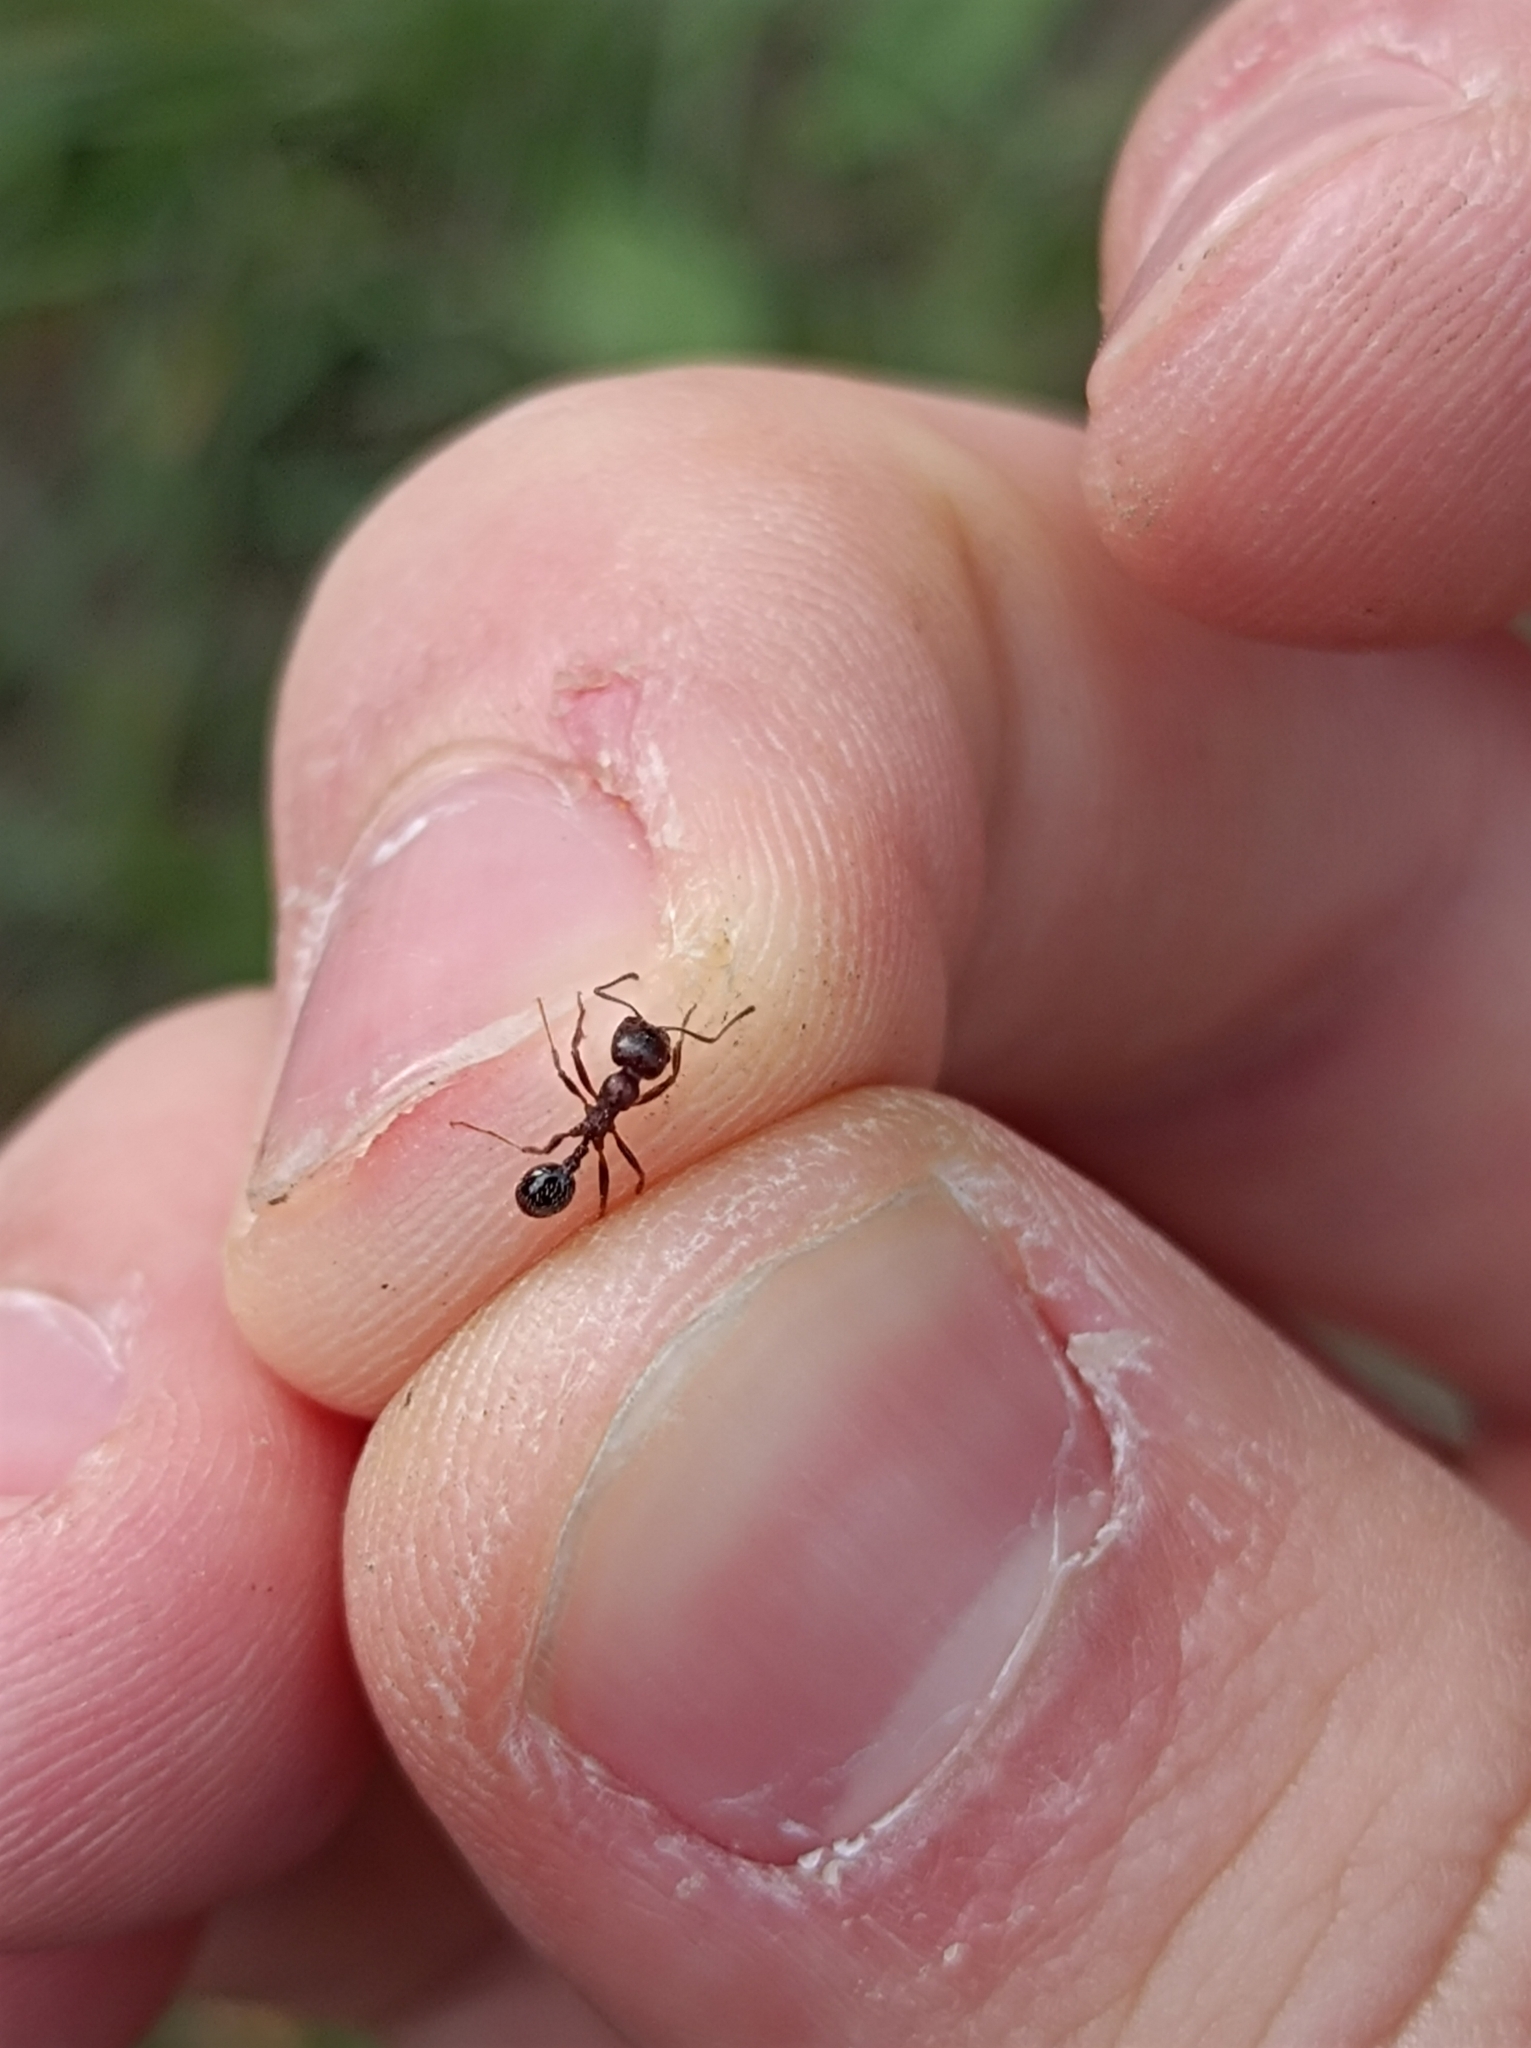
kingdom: Animalia
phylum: Arthropoda
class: Insecta
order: Hymenoptera
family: Formicidae
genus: Messor
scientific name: Messor structor
